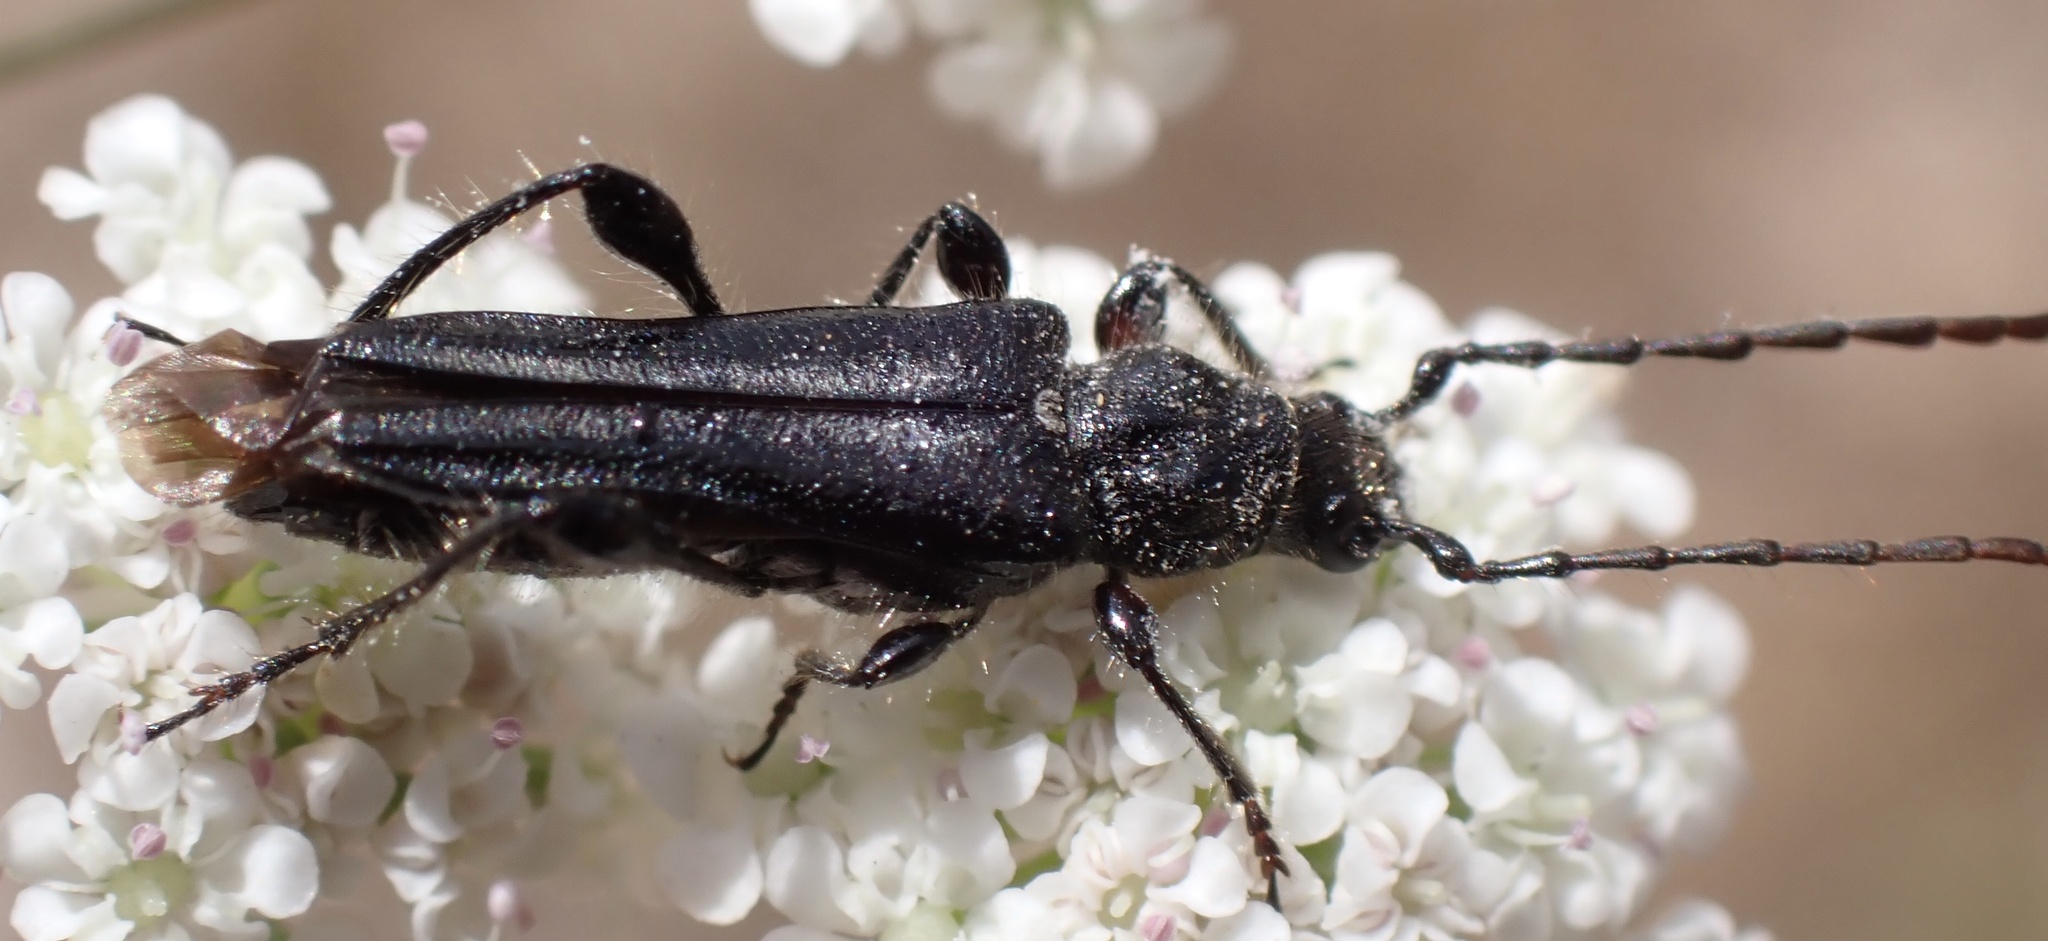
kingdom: Animalia
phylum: Arthropoda
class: Insecta
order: Coleoptera
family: Cerambycidae
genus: Stenopterus
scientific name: Stenopterus ater
